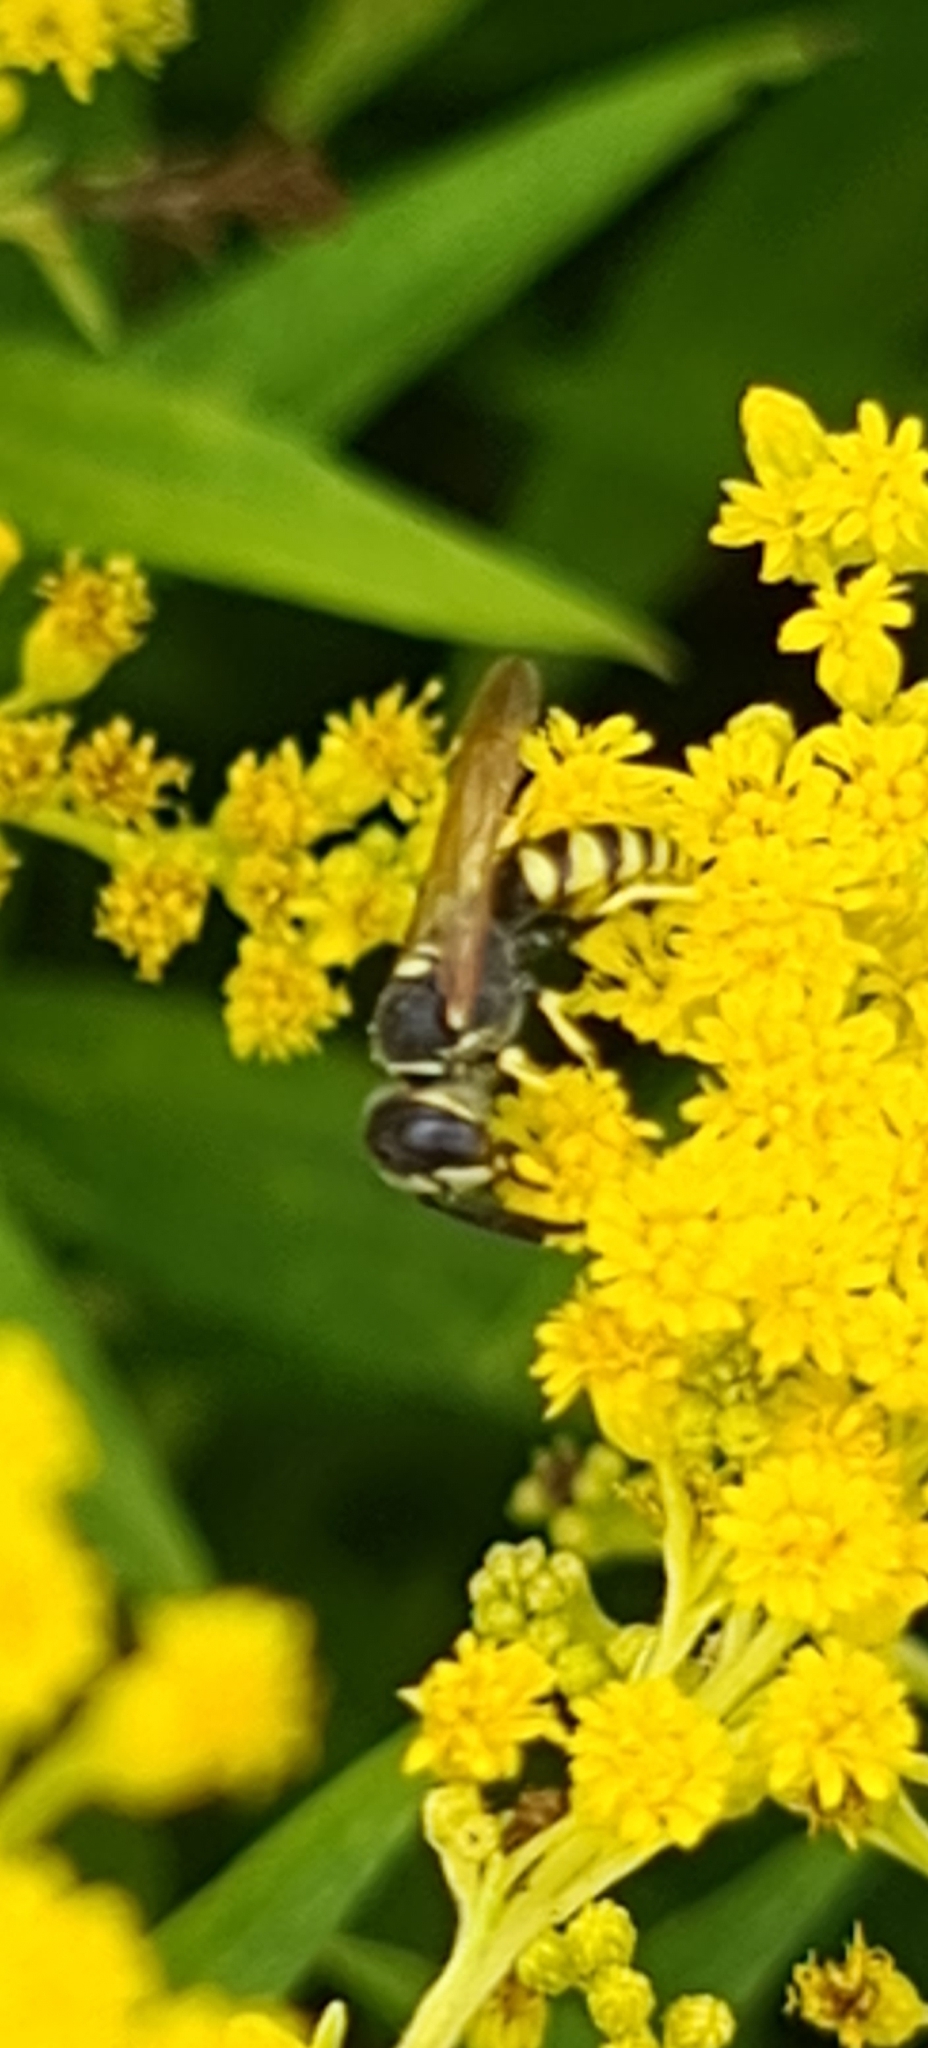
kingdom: Animalia
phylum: Arthropoda
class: Insecta
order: Hymenoptera
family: Crabronidae
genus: Philanthus
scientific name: Philanthus triangulum
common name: Bee wolf
